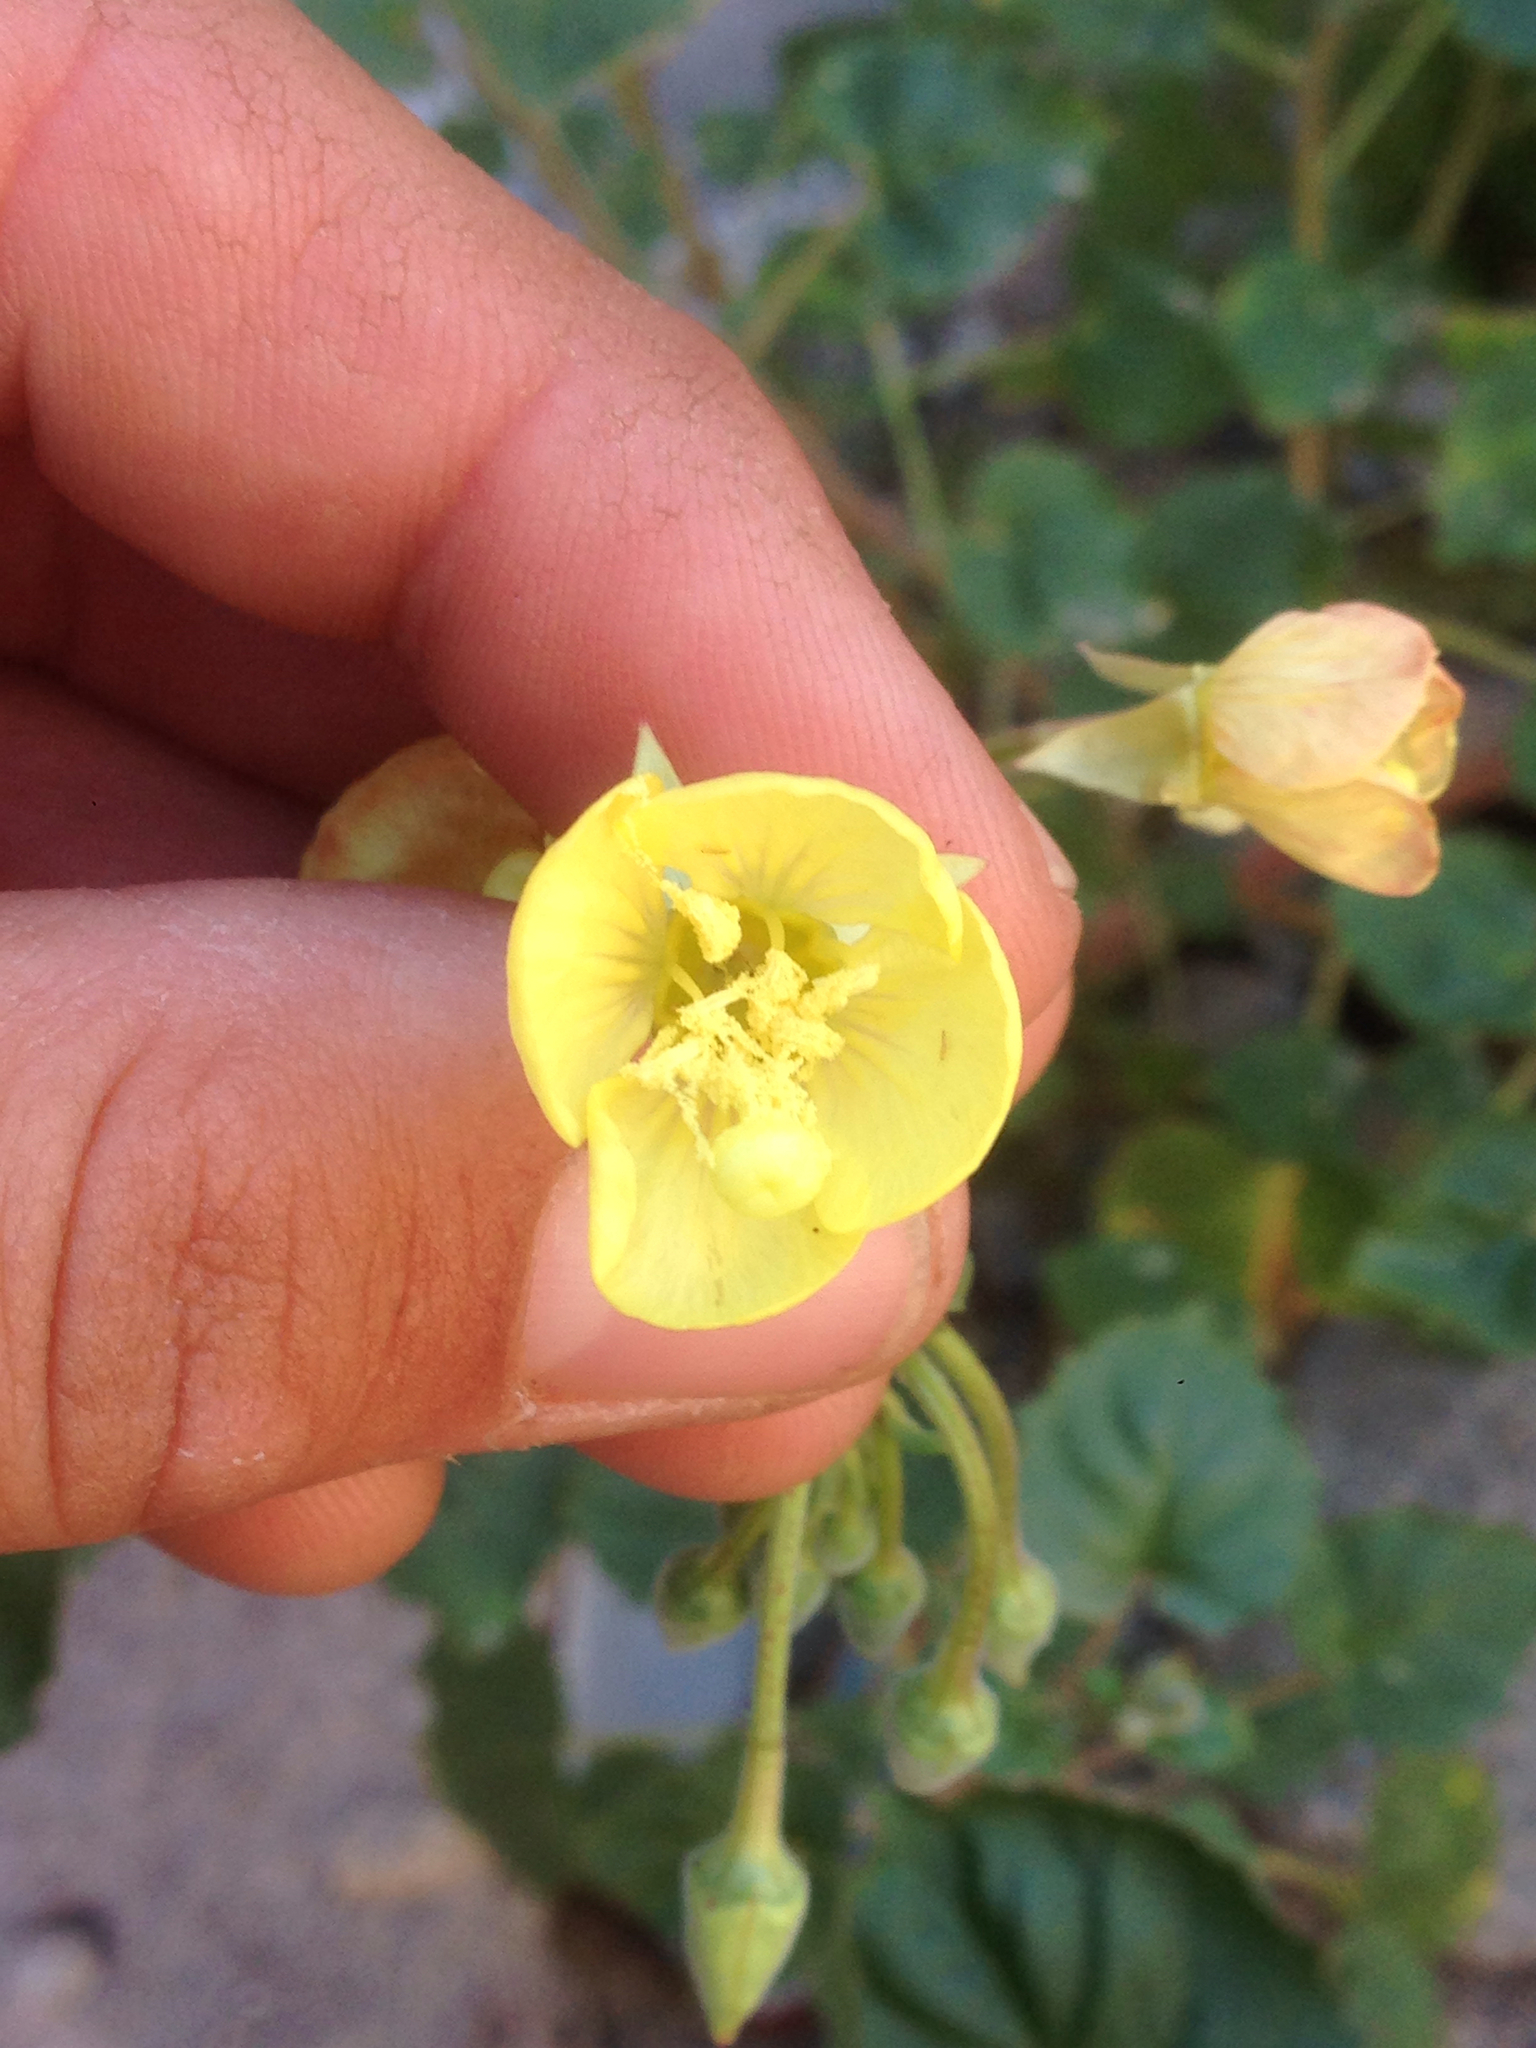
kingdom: Plantae
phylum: Tracheophyta
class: Magnoliopsida
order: Myrtales
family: Onagraceae
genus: Chylismia
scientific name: Chylismia cardiophylla
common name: Heartleaf suncup
